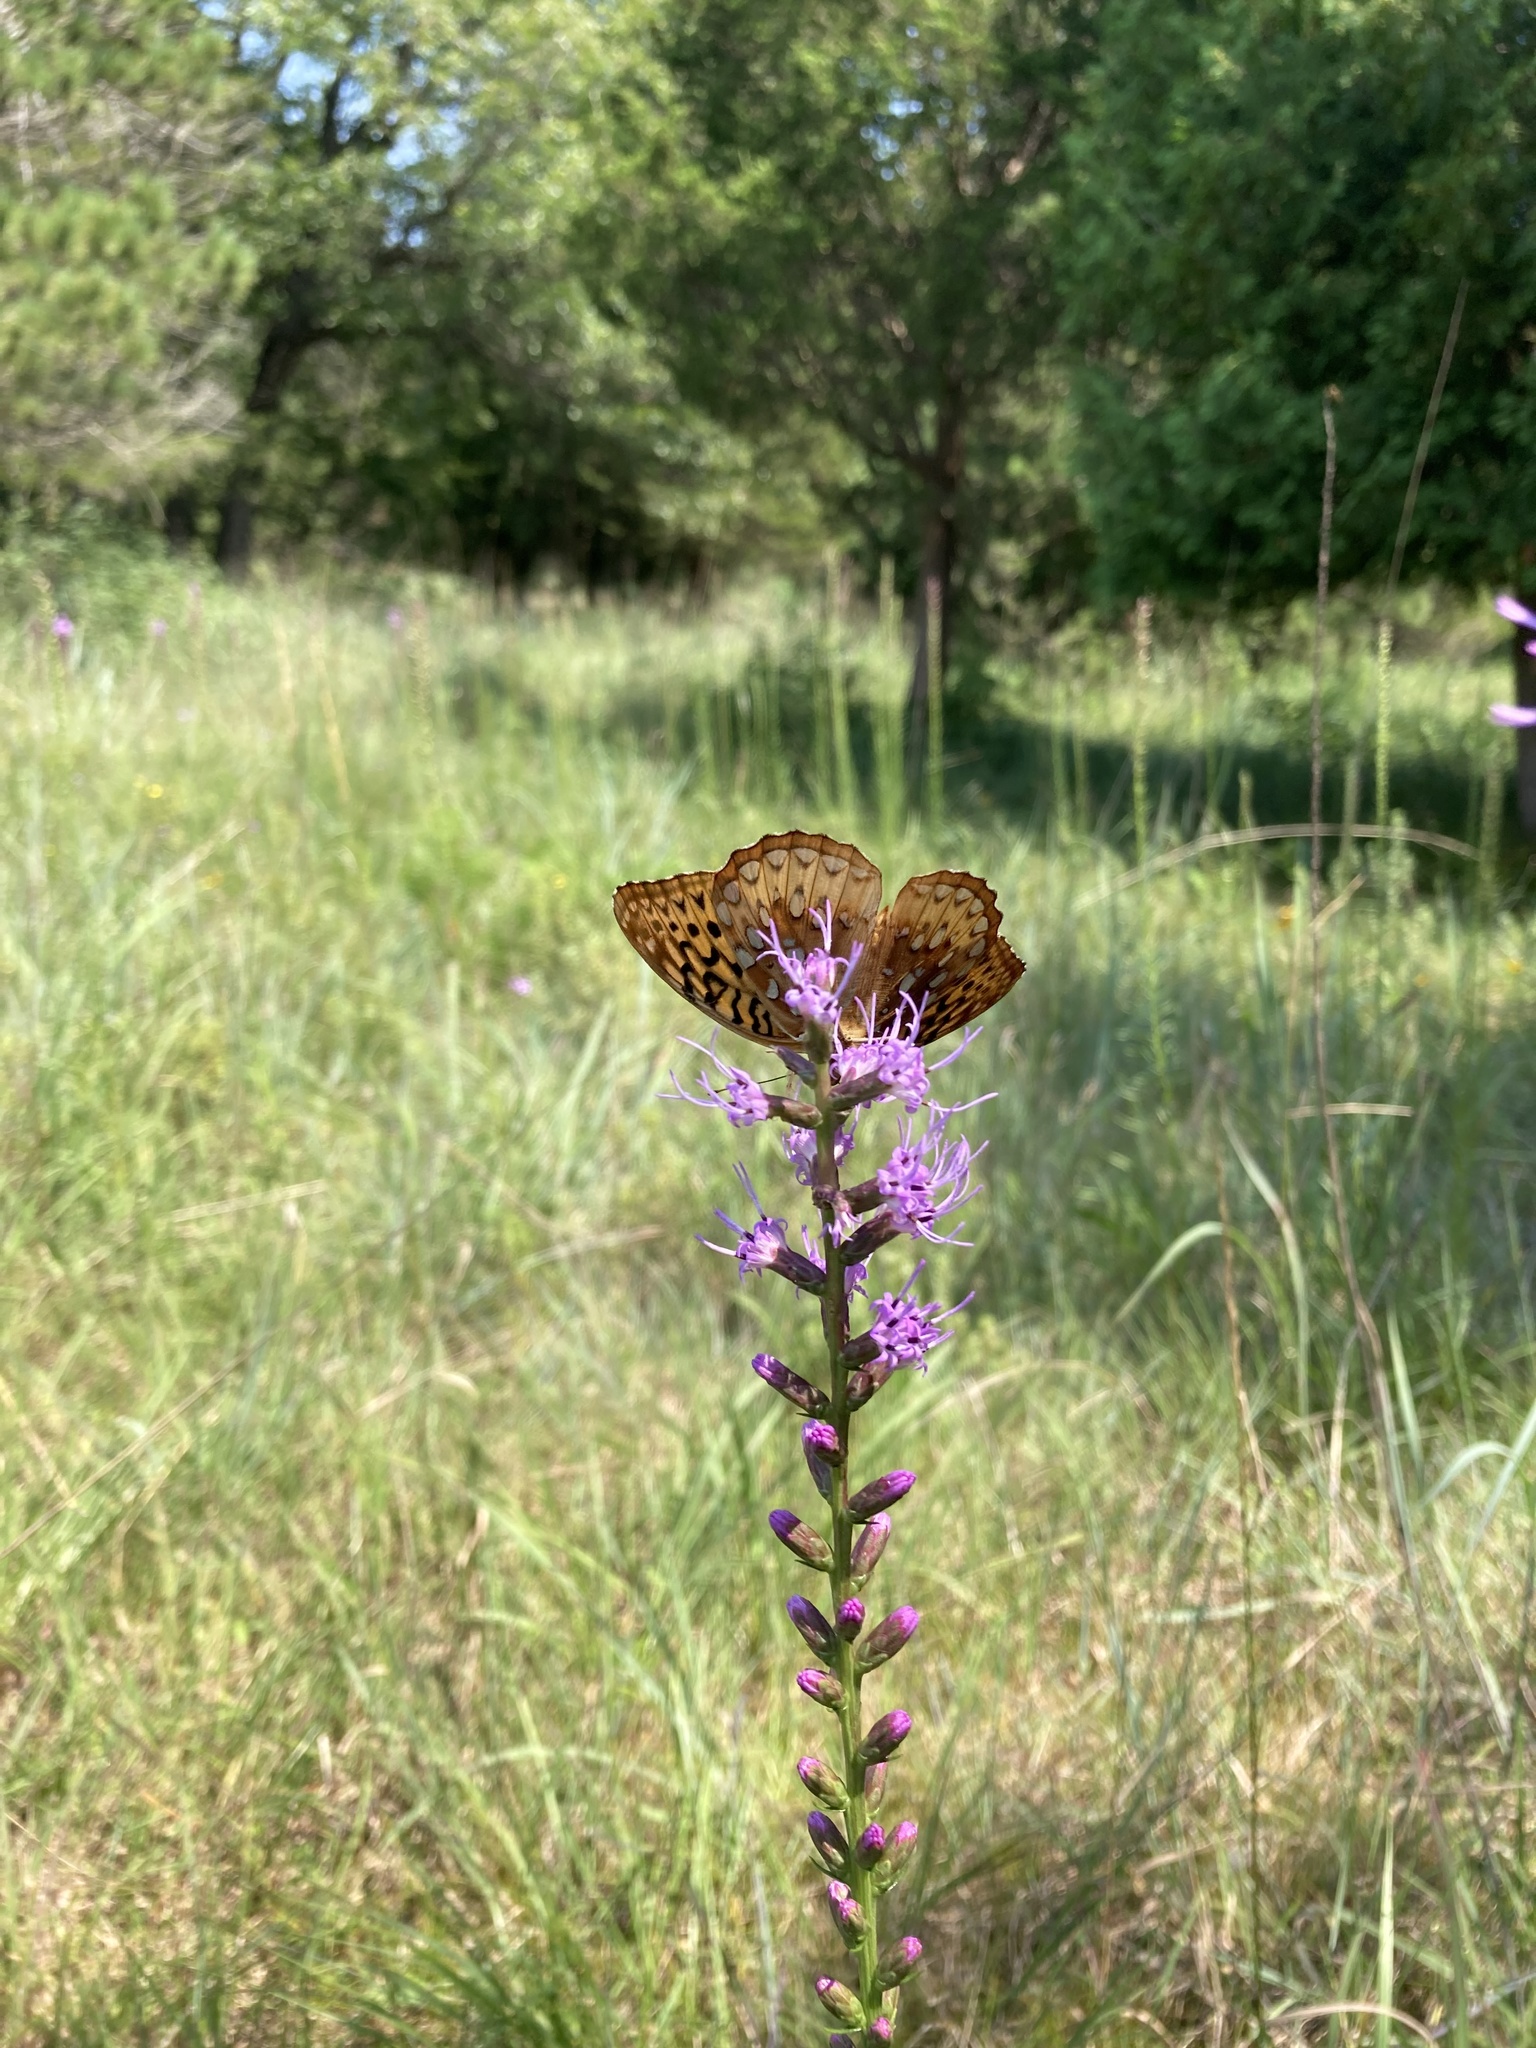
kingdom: Animalia
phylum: Arthropoda
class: Insecta
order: Lepidoptera
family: Nymphalidae
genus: Speyeria
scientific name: Speyeria cybele
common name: Great spangled fritillary
